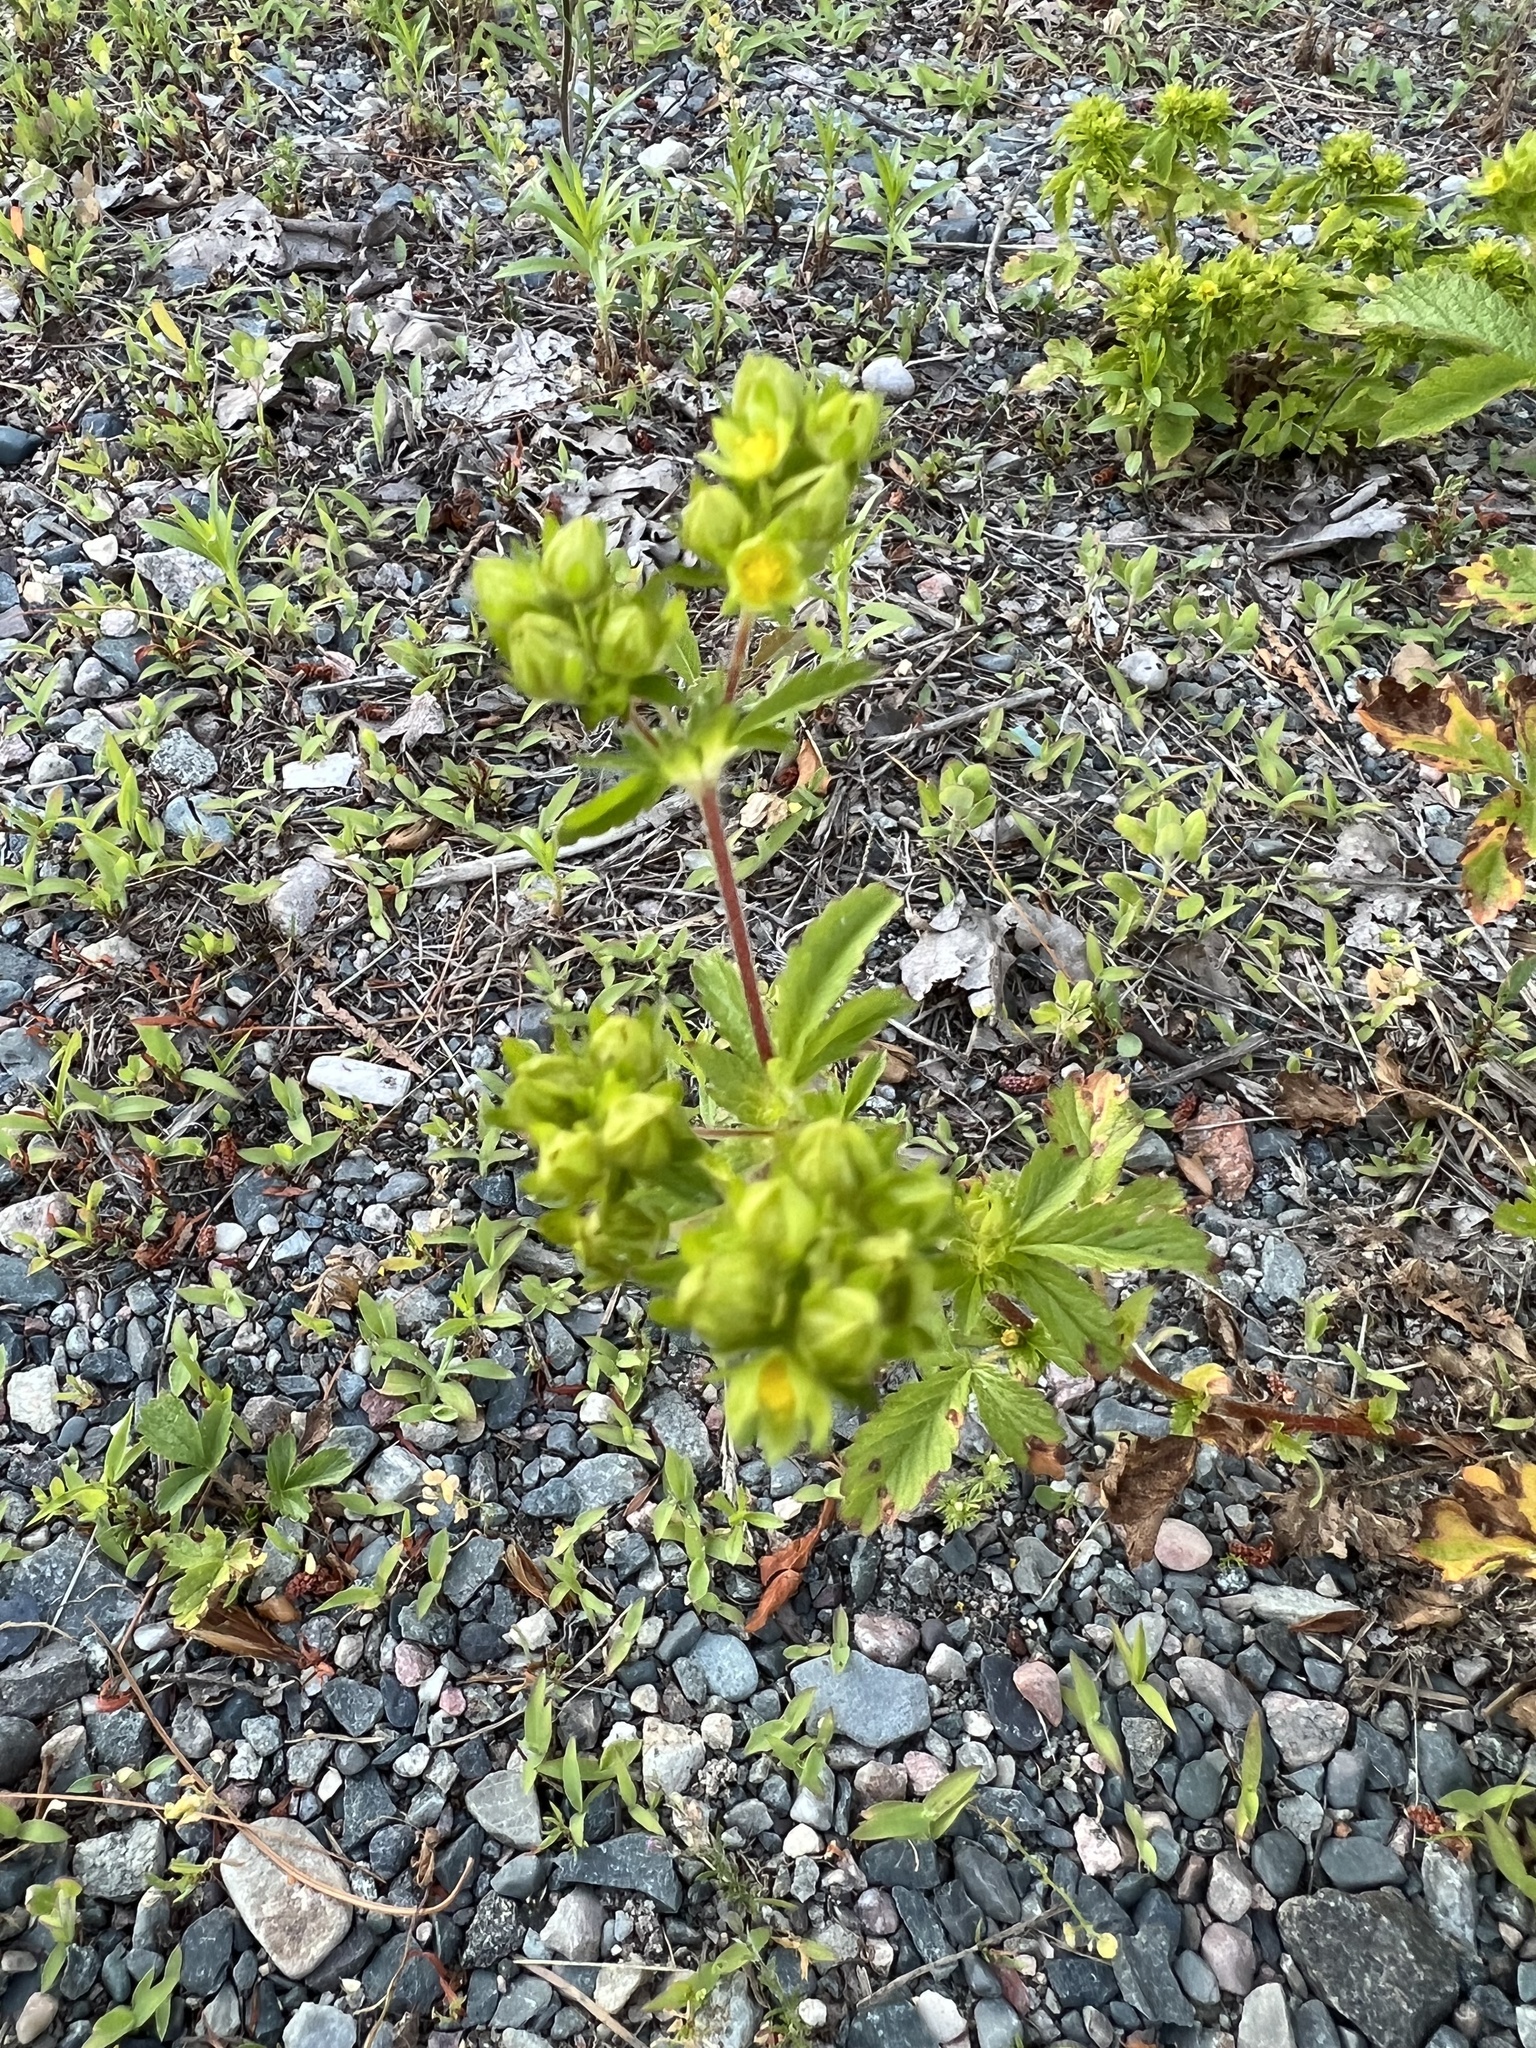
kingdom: Plantae
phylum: Tracheophyta
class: Magnoliopsida
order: Rosales
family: Rosaceae
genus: Potentilla
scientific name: Potentilla norvegica
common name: Ternate-leaved cinquefoil
